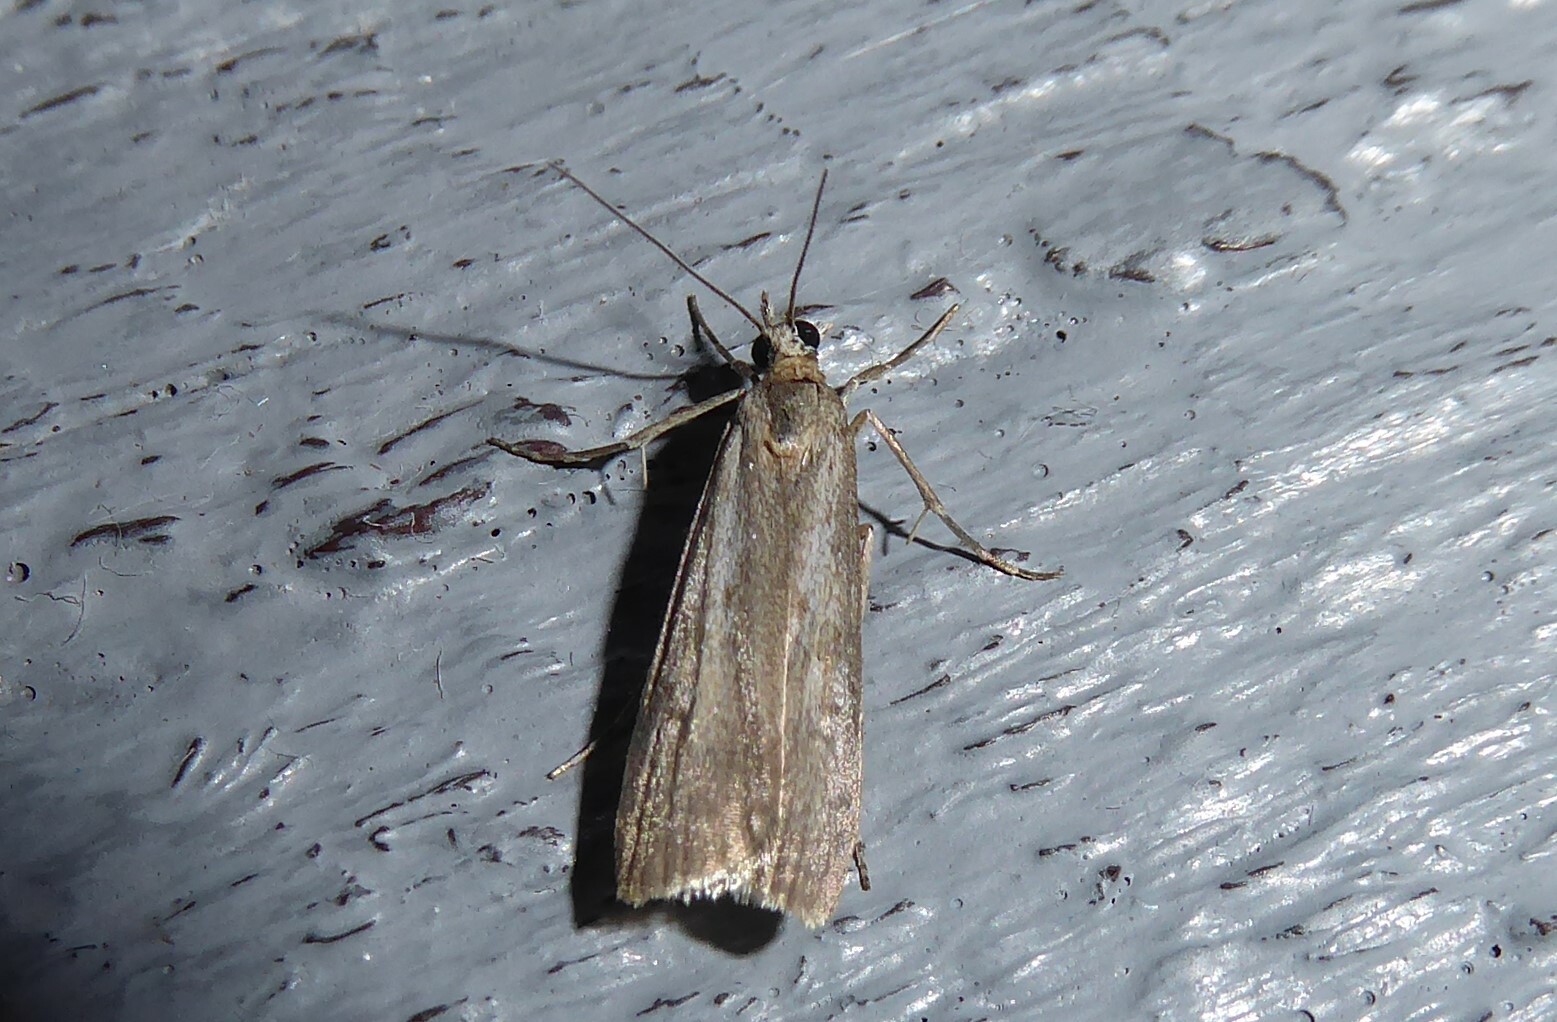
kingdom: Animalia
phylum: Arthropoda
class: Insecta
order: Lepidoptera
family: Crambidae
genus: Eudonia
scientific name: Eudonia leptalea
